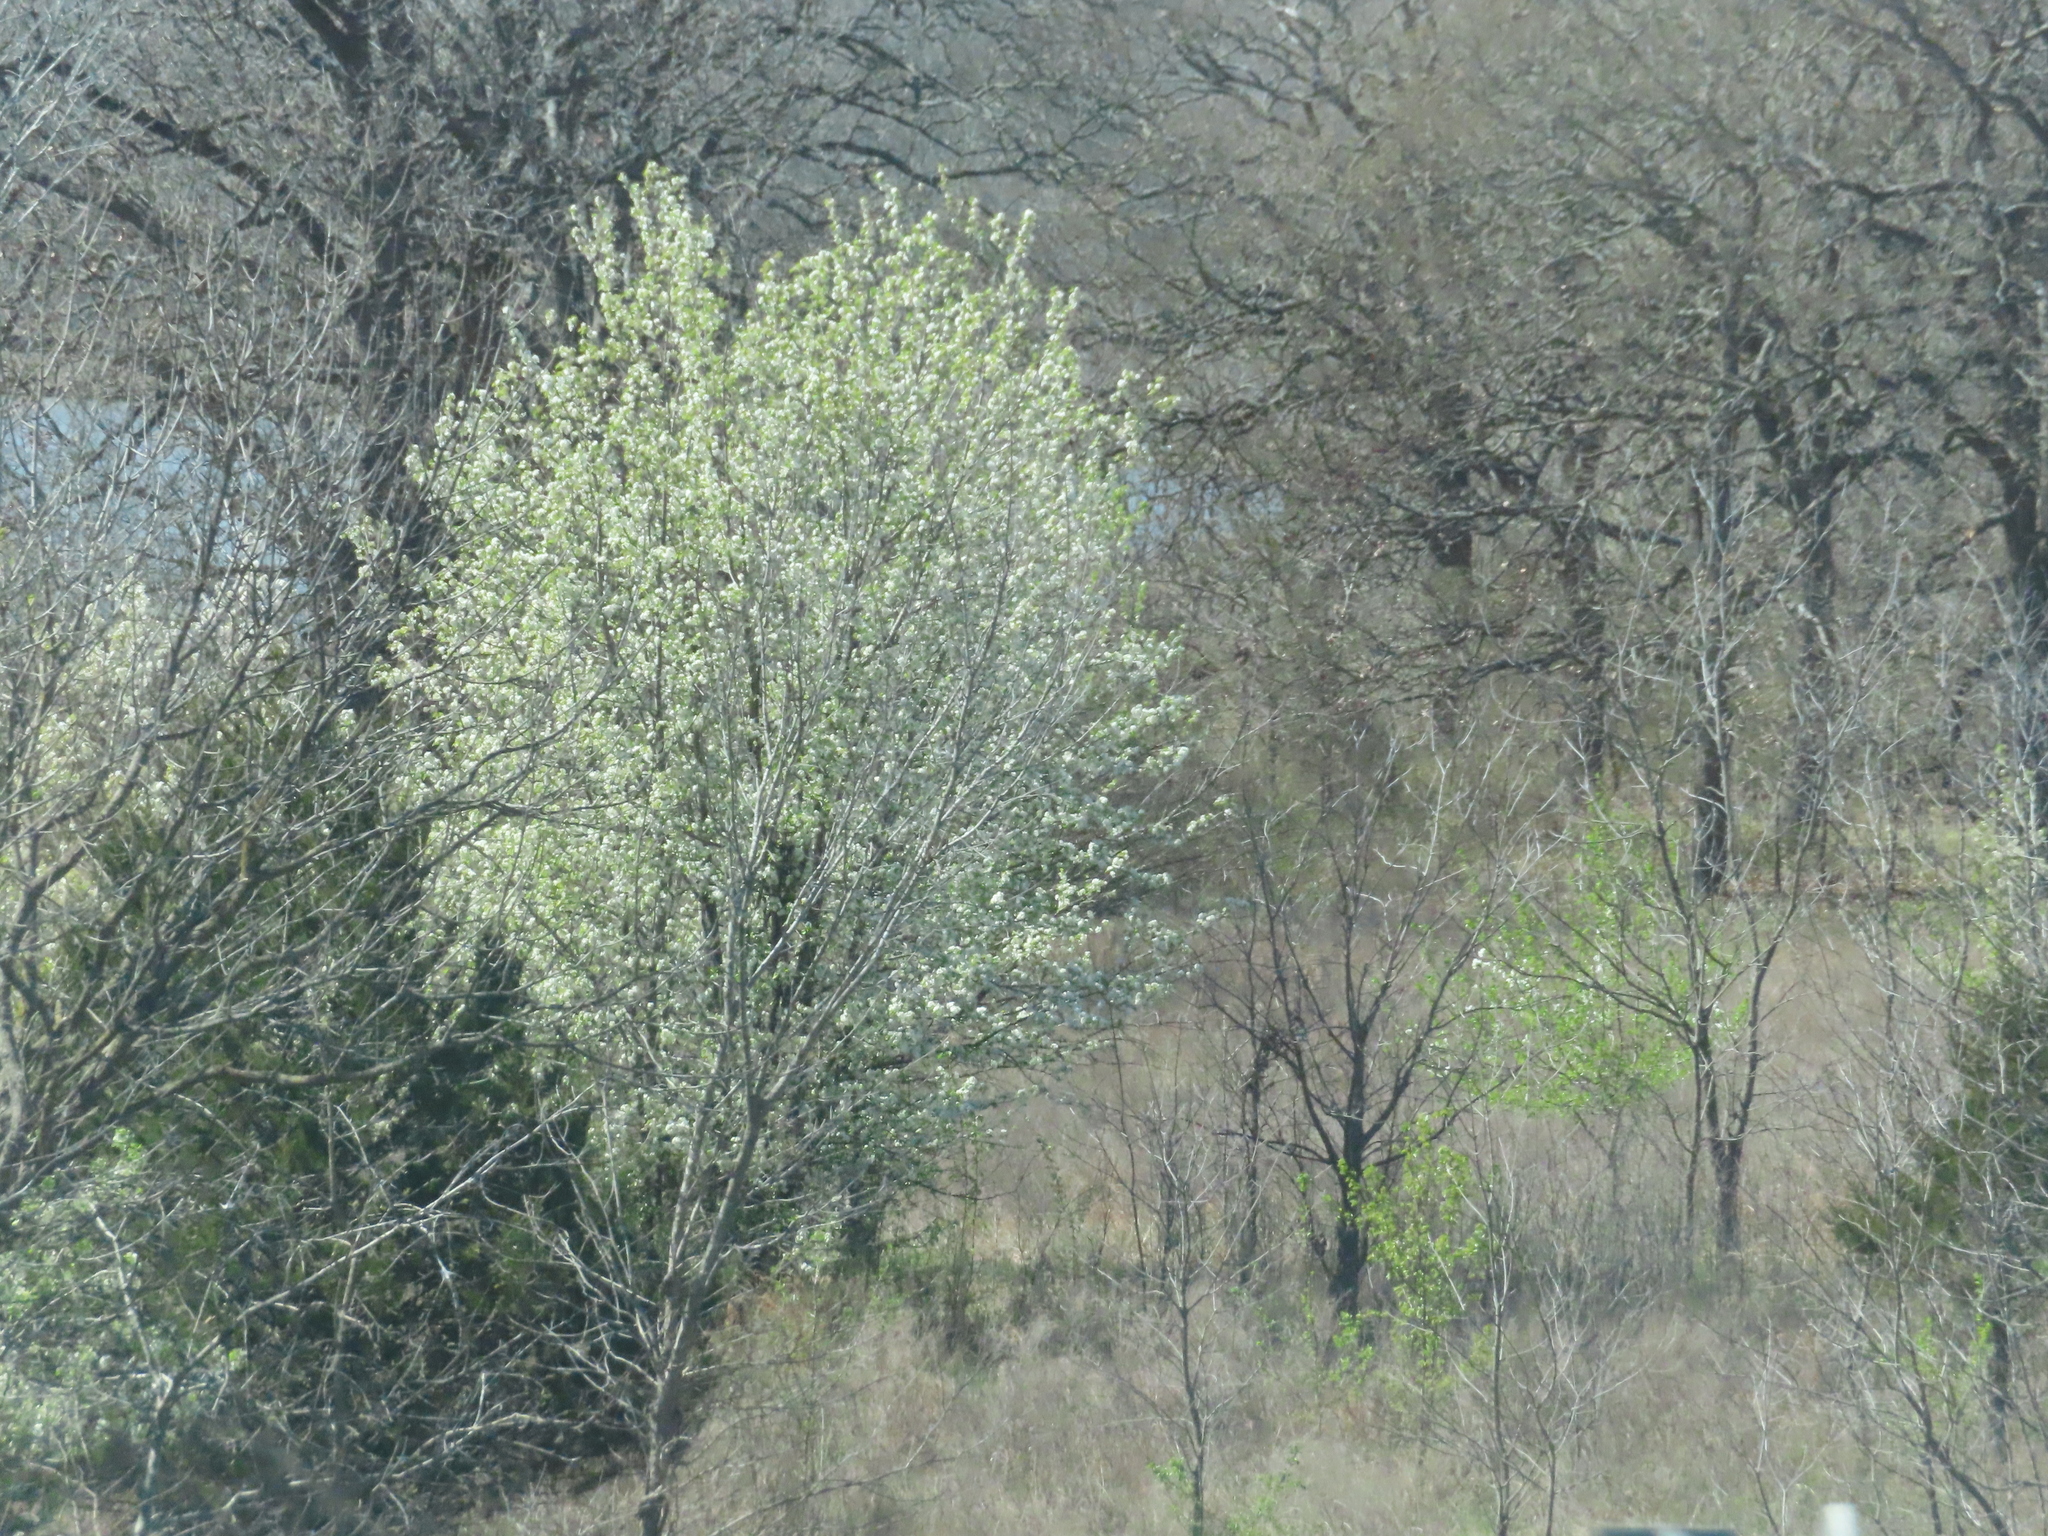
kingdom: Plantae
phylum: Tracheophyta
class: Magnoliopsida
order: Rosales
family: Rosaceae
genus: Pyrus
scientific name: Pyrus calleryana
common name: Callery pear
